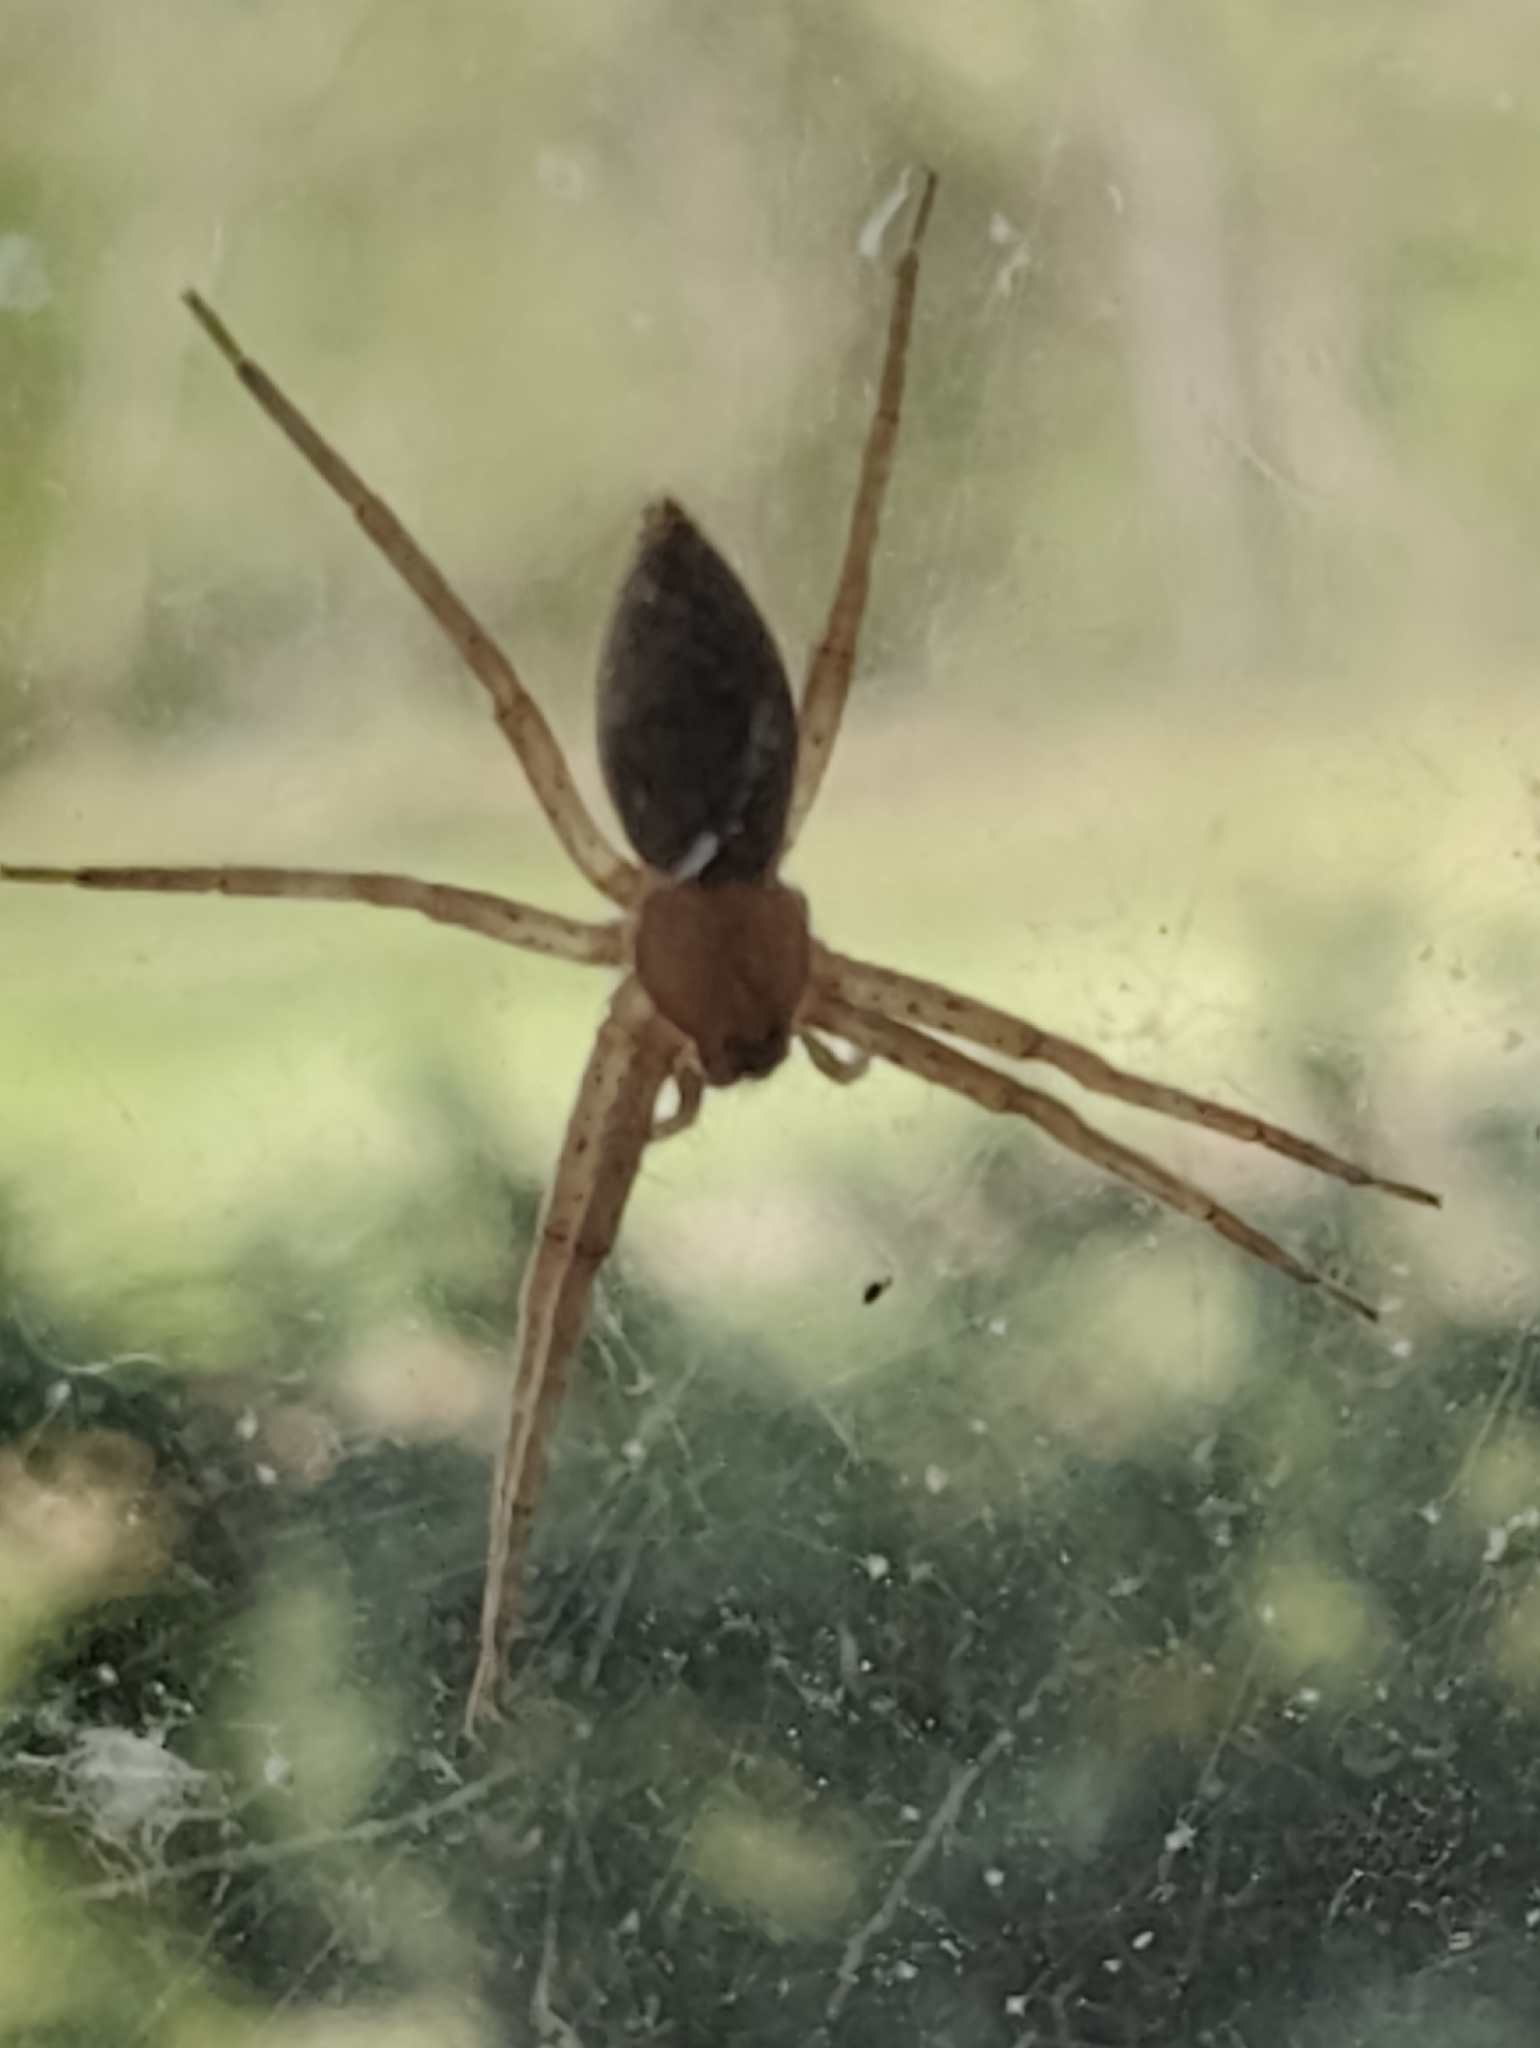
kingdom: Animalia
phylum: Arthropoda
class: Arachnida
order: Araneae
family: Pisauridae
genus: Pisaurina
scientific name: Pisaurina mira
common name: American nursery web spider
